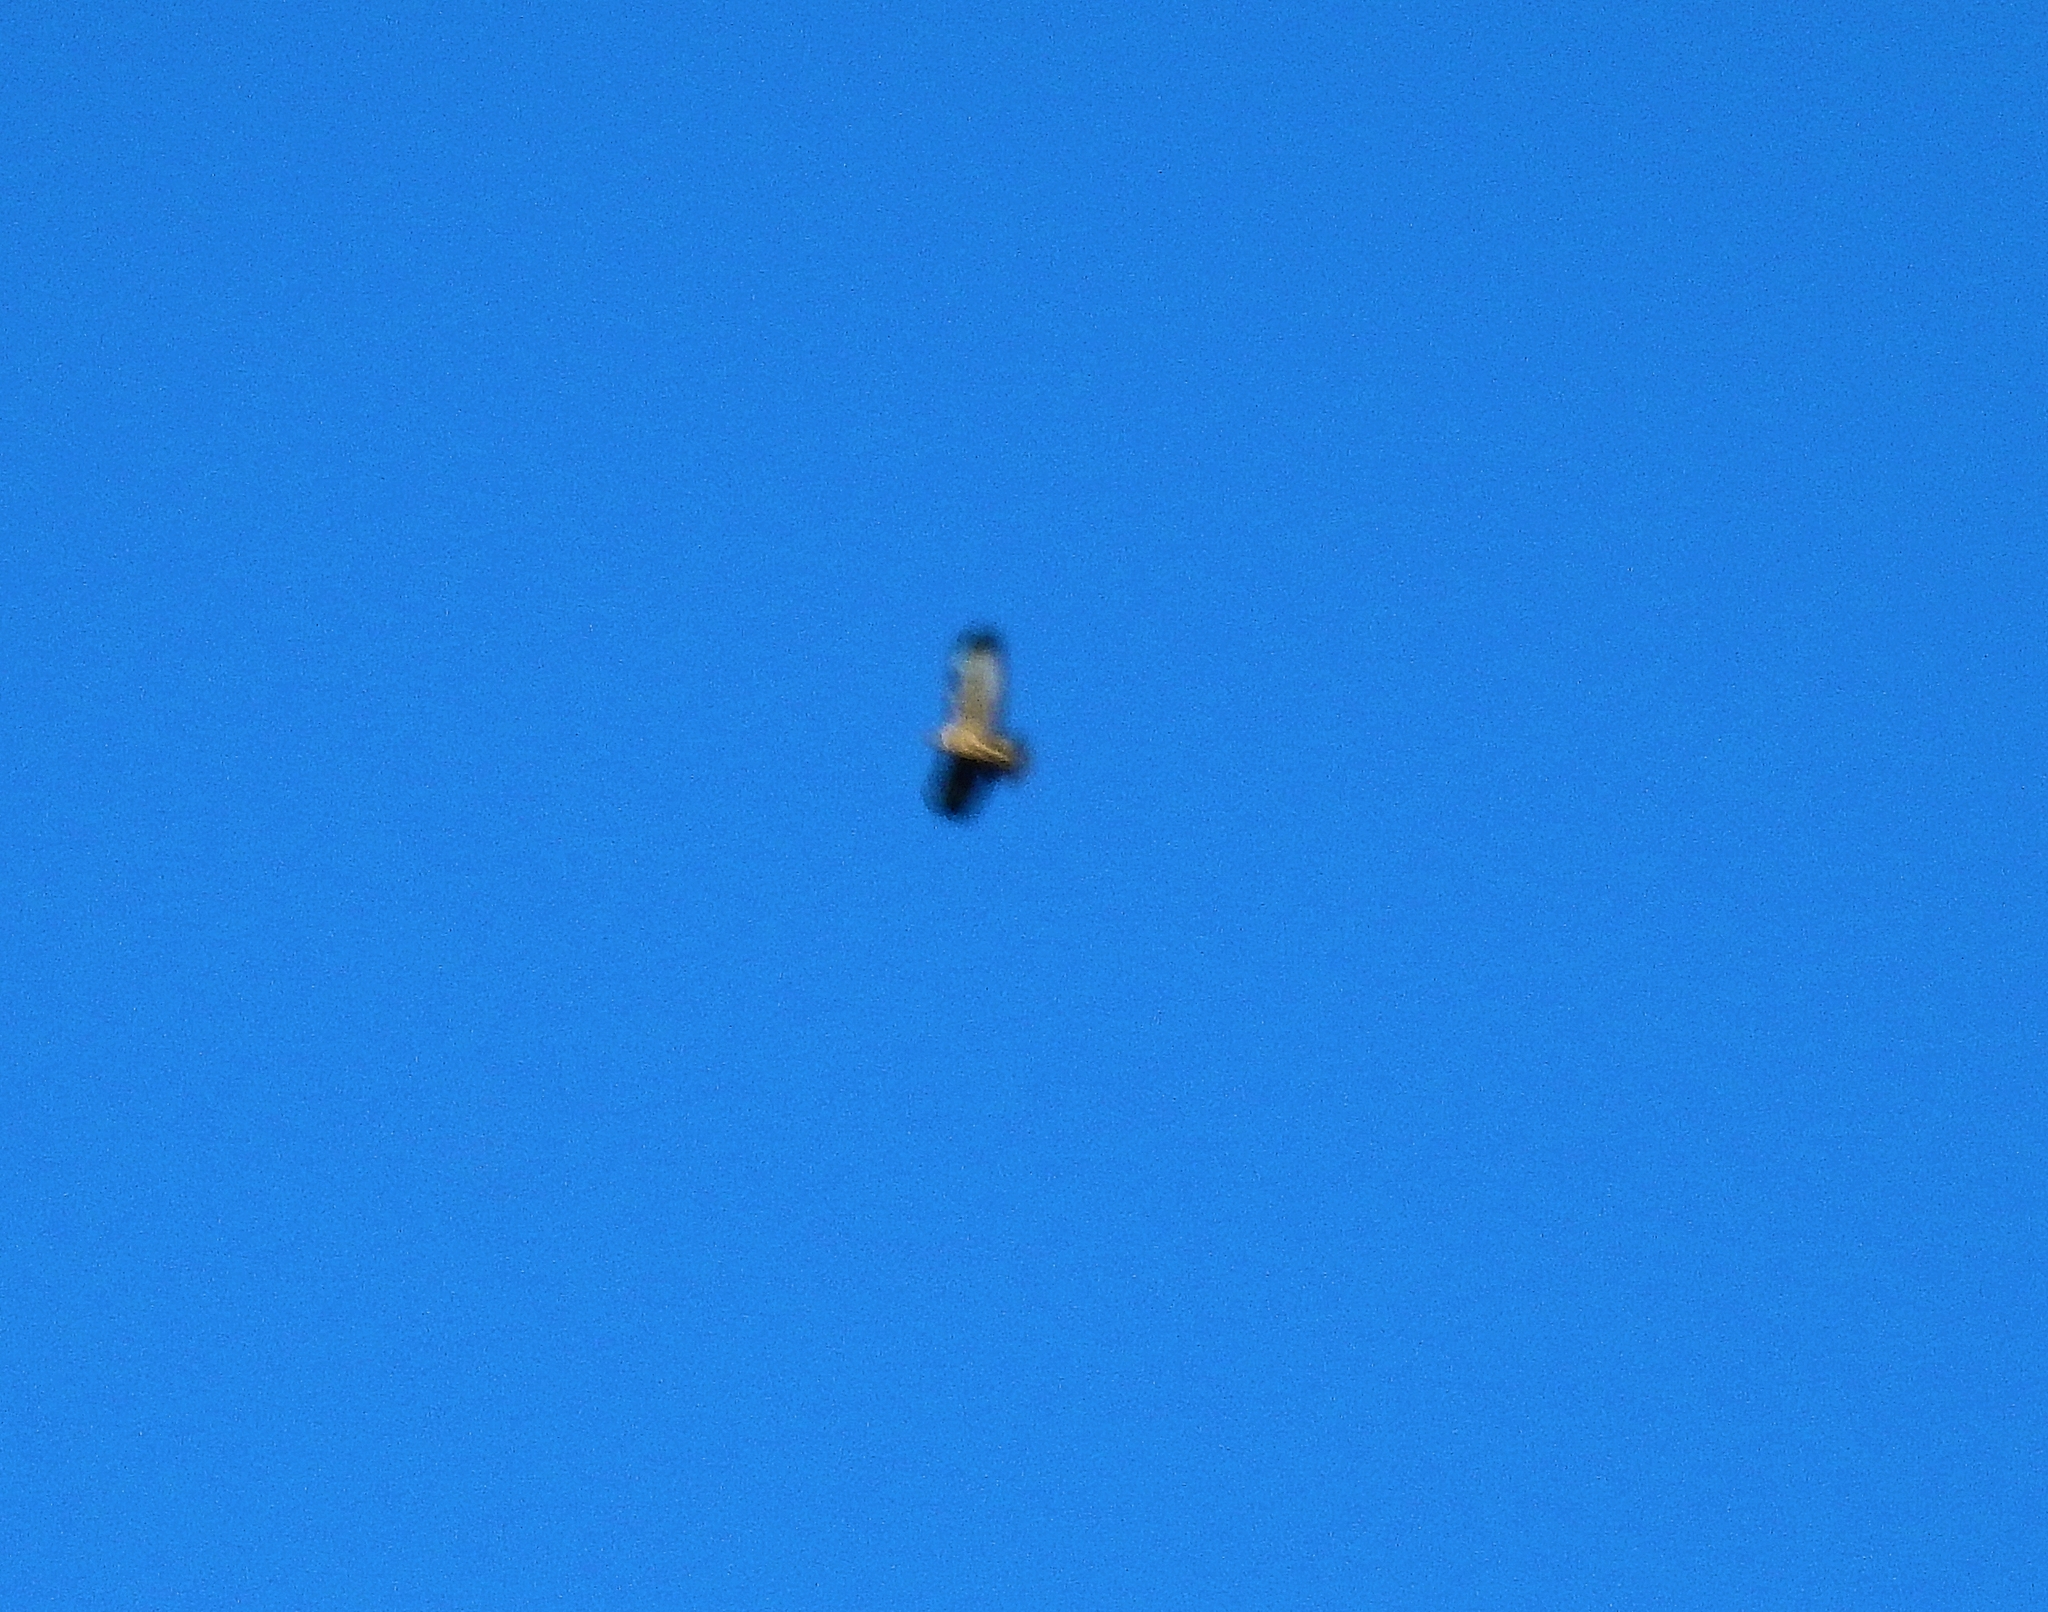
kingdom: Animalia
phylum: Chordata
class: Aves
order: Accipitriformes
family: Accipitridae
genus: Buteo
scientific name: Buteo buteo
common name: Common buzzard
